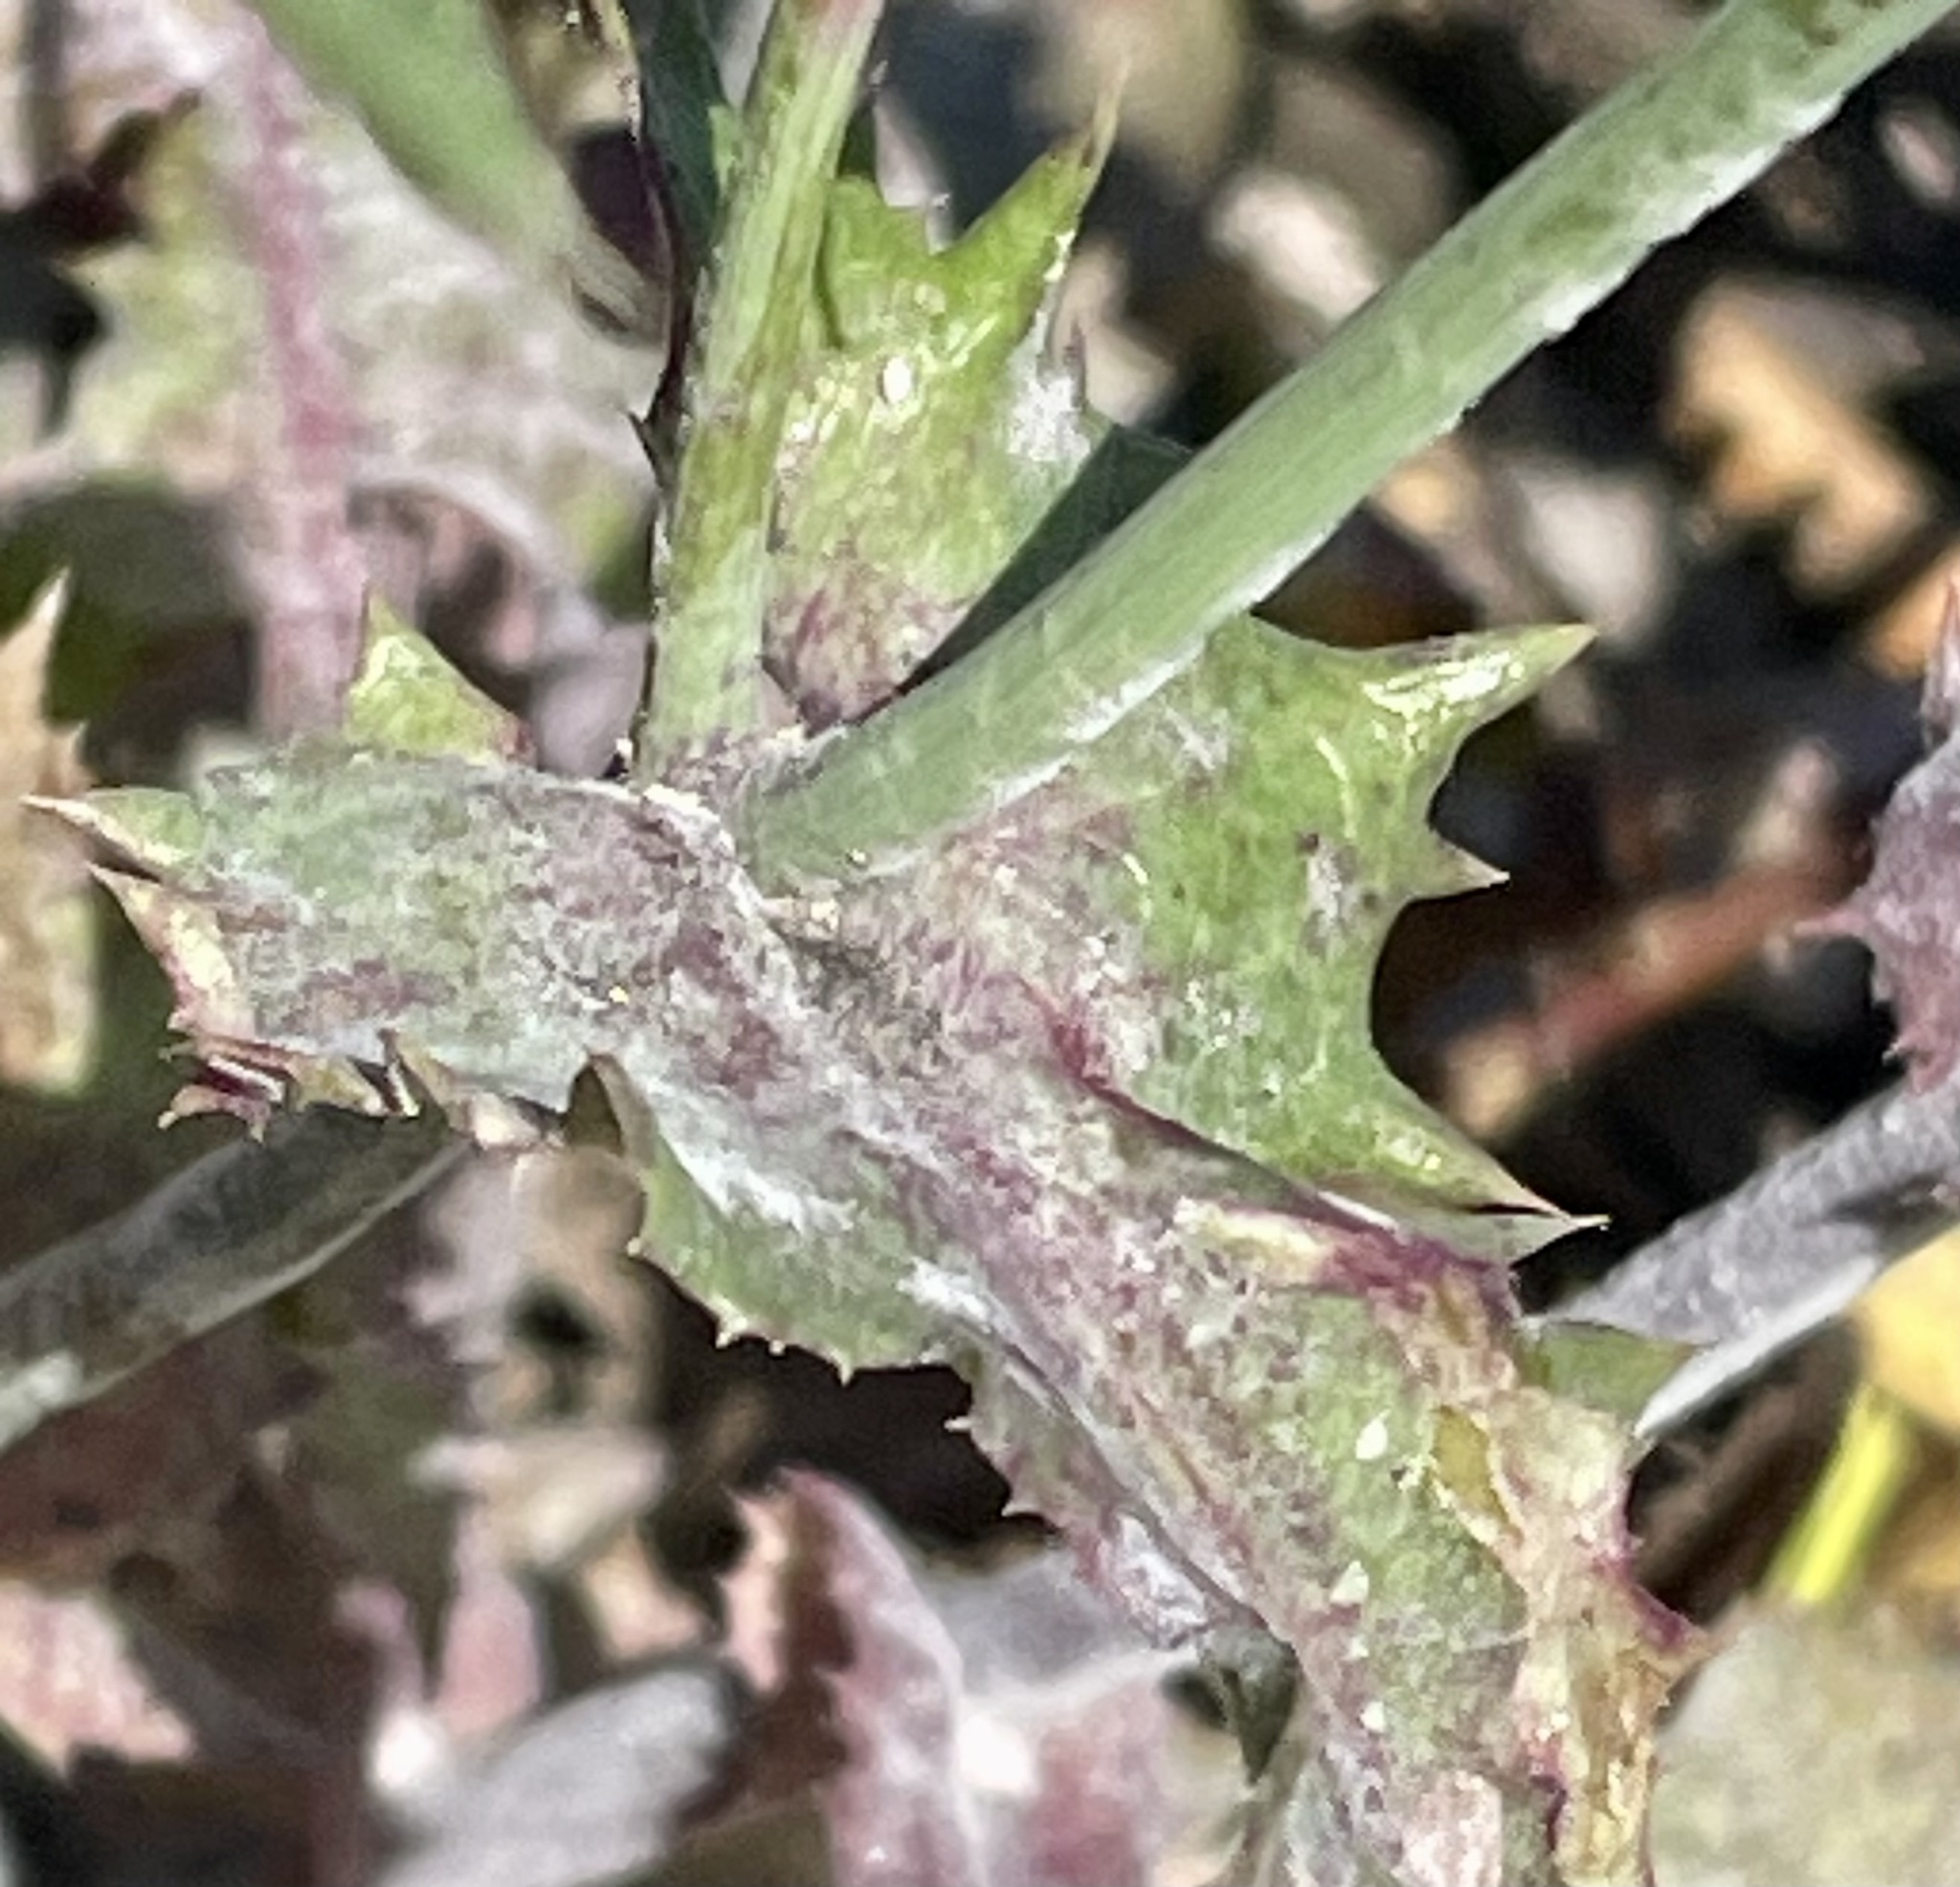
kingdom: Plantae
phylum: Tracheophyta
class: Magnoliopsida
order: Asterales
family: Asteraceae
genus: Sonchus
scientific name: Sonchus oleraceus
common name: Common sowthistle
